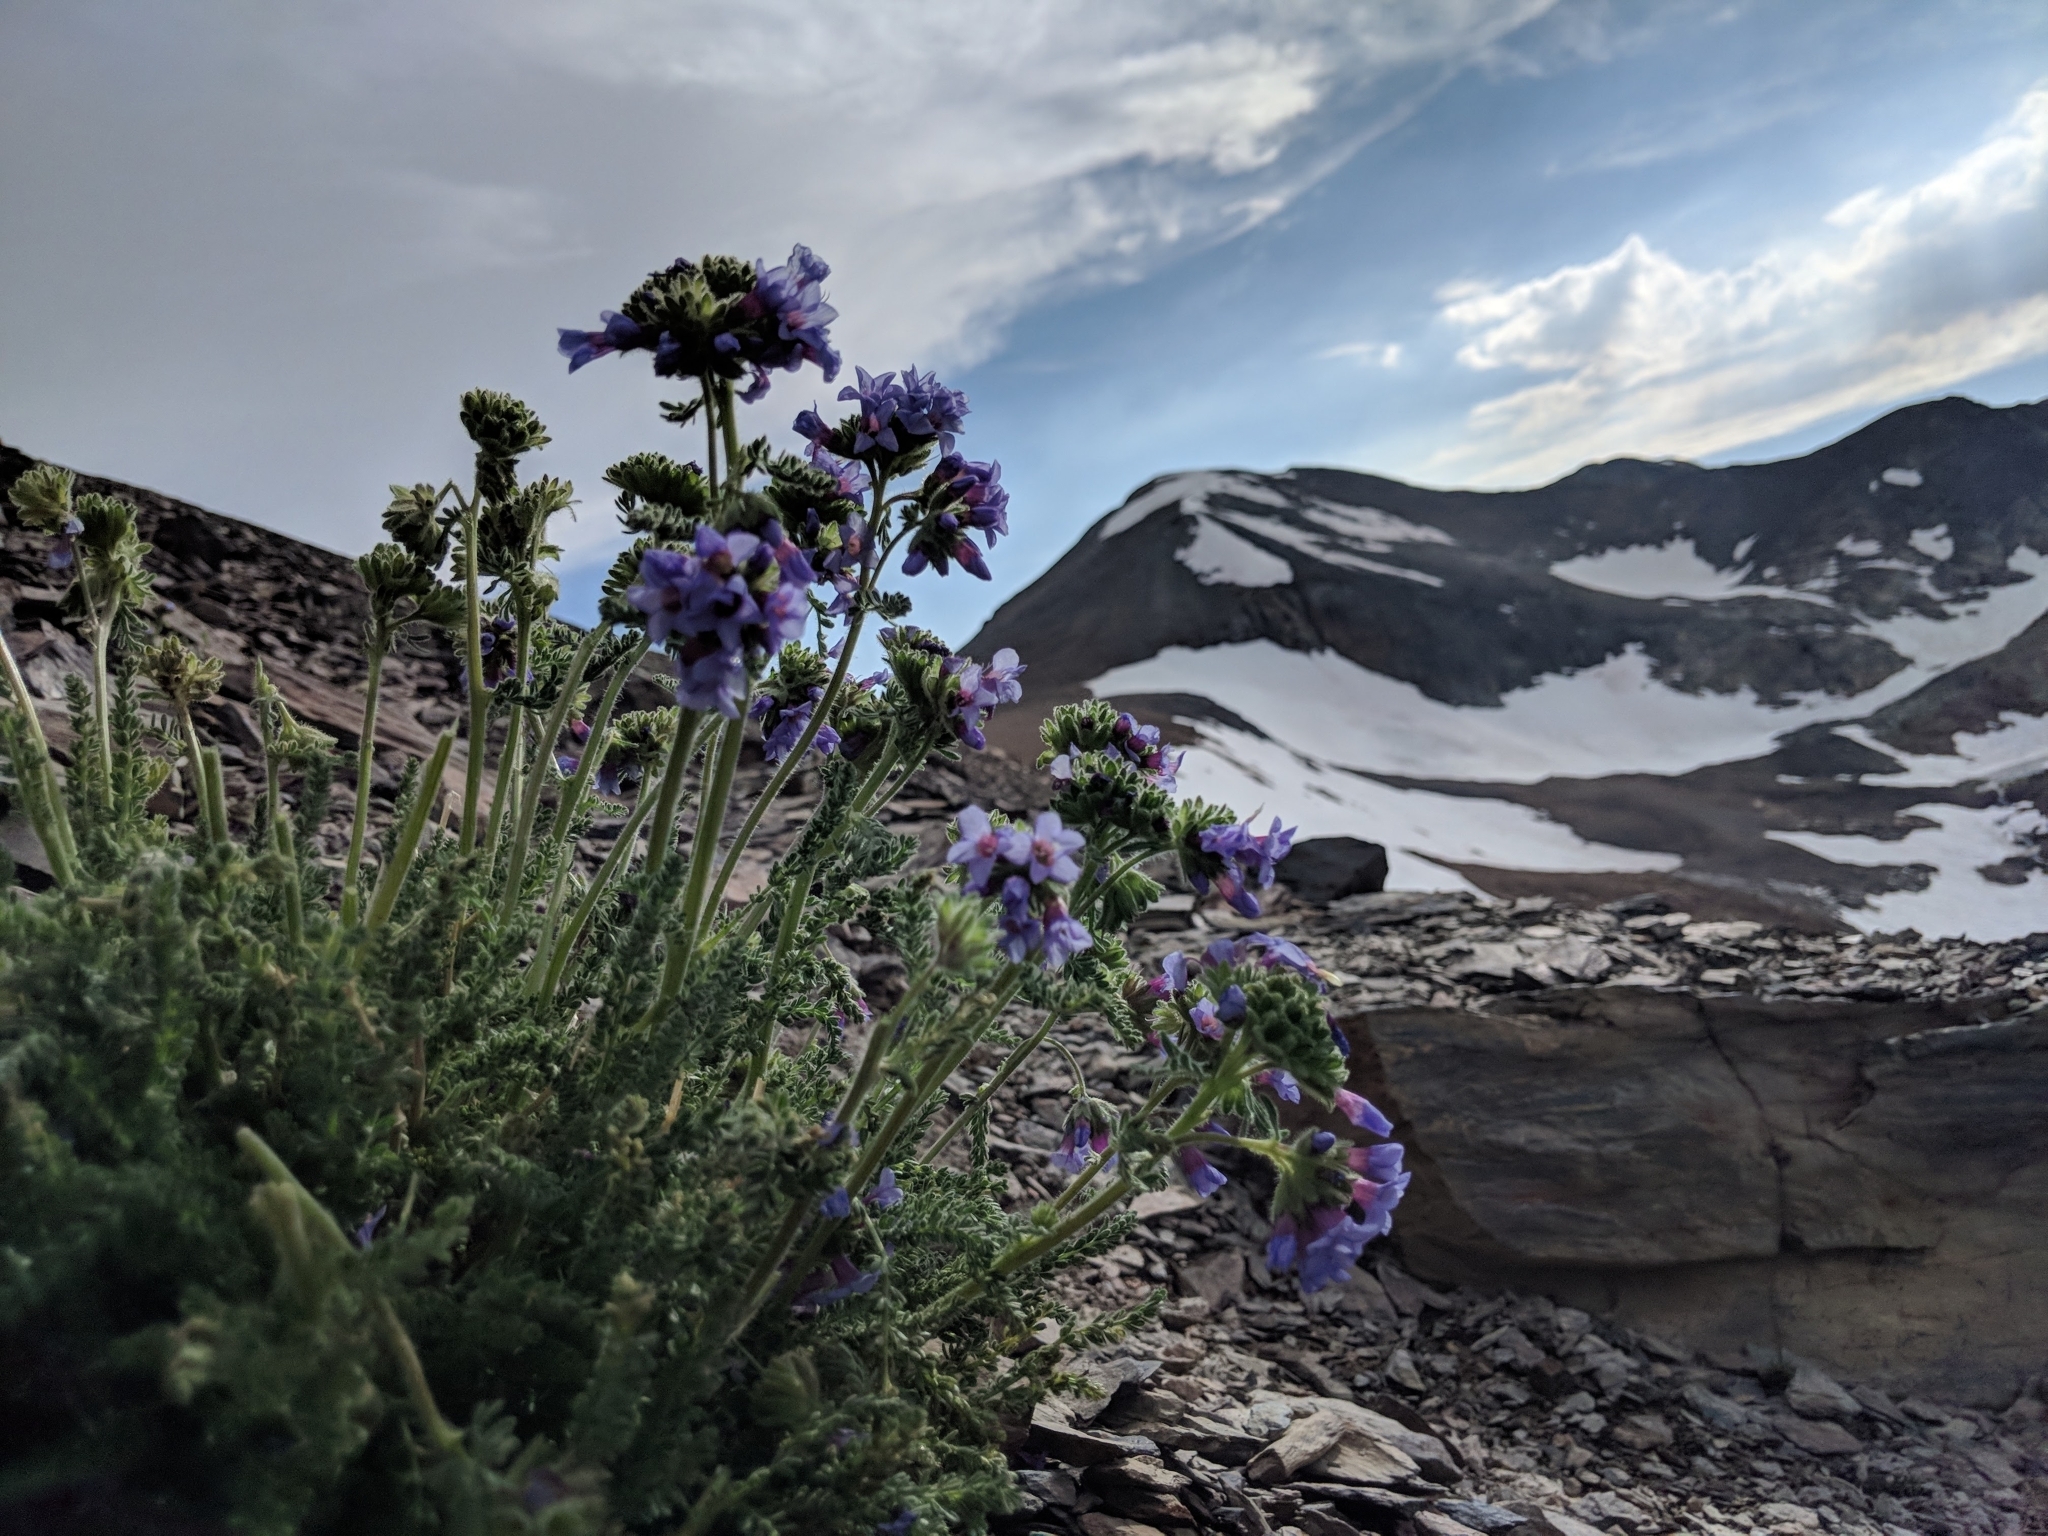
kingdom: Plantae
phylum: Tracheophyta
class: Magnoliopsida
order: Ericales
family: Polemoniaceae
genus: Polemonium
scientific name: Polemonium eximium
